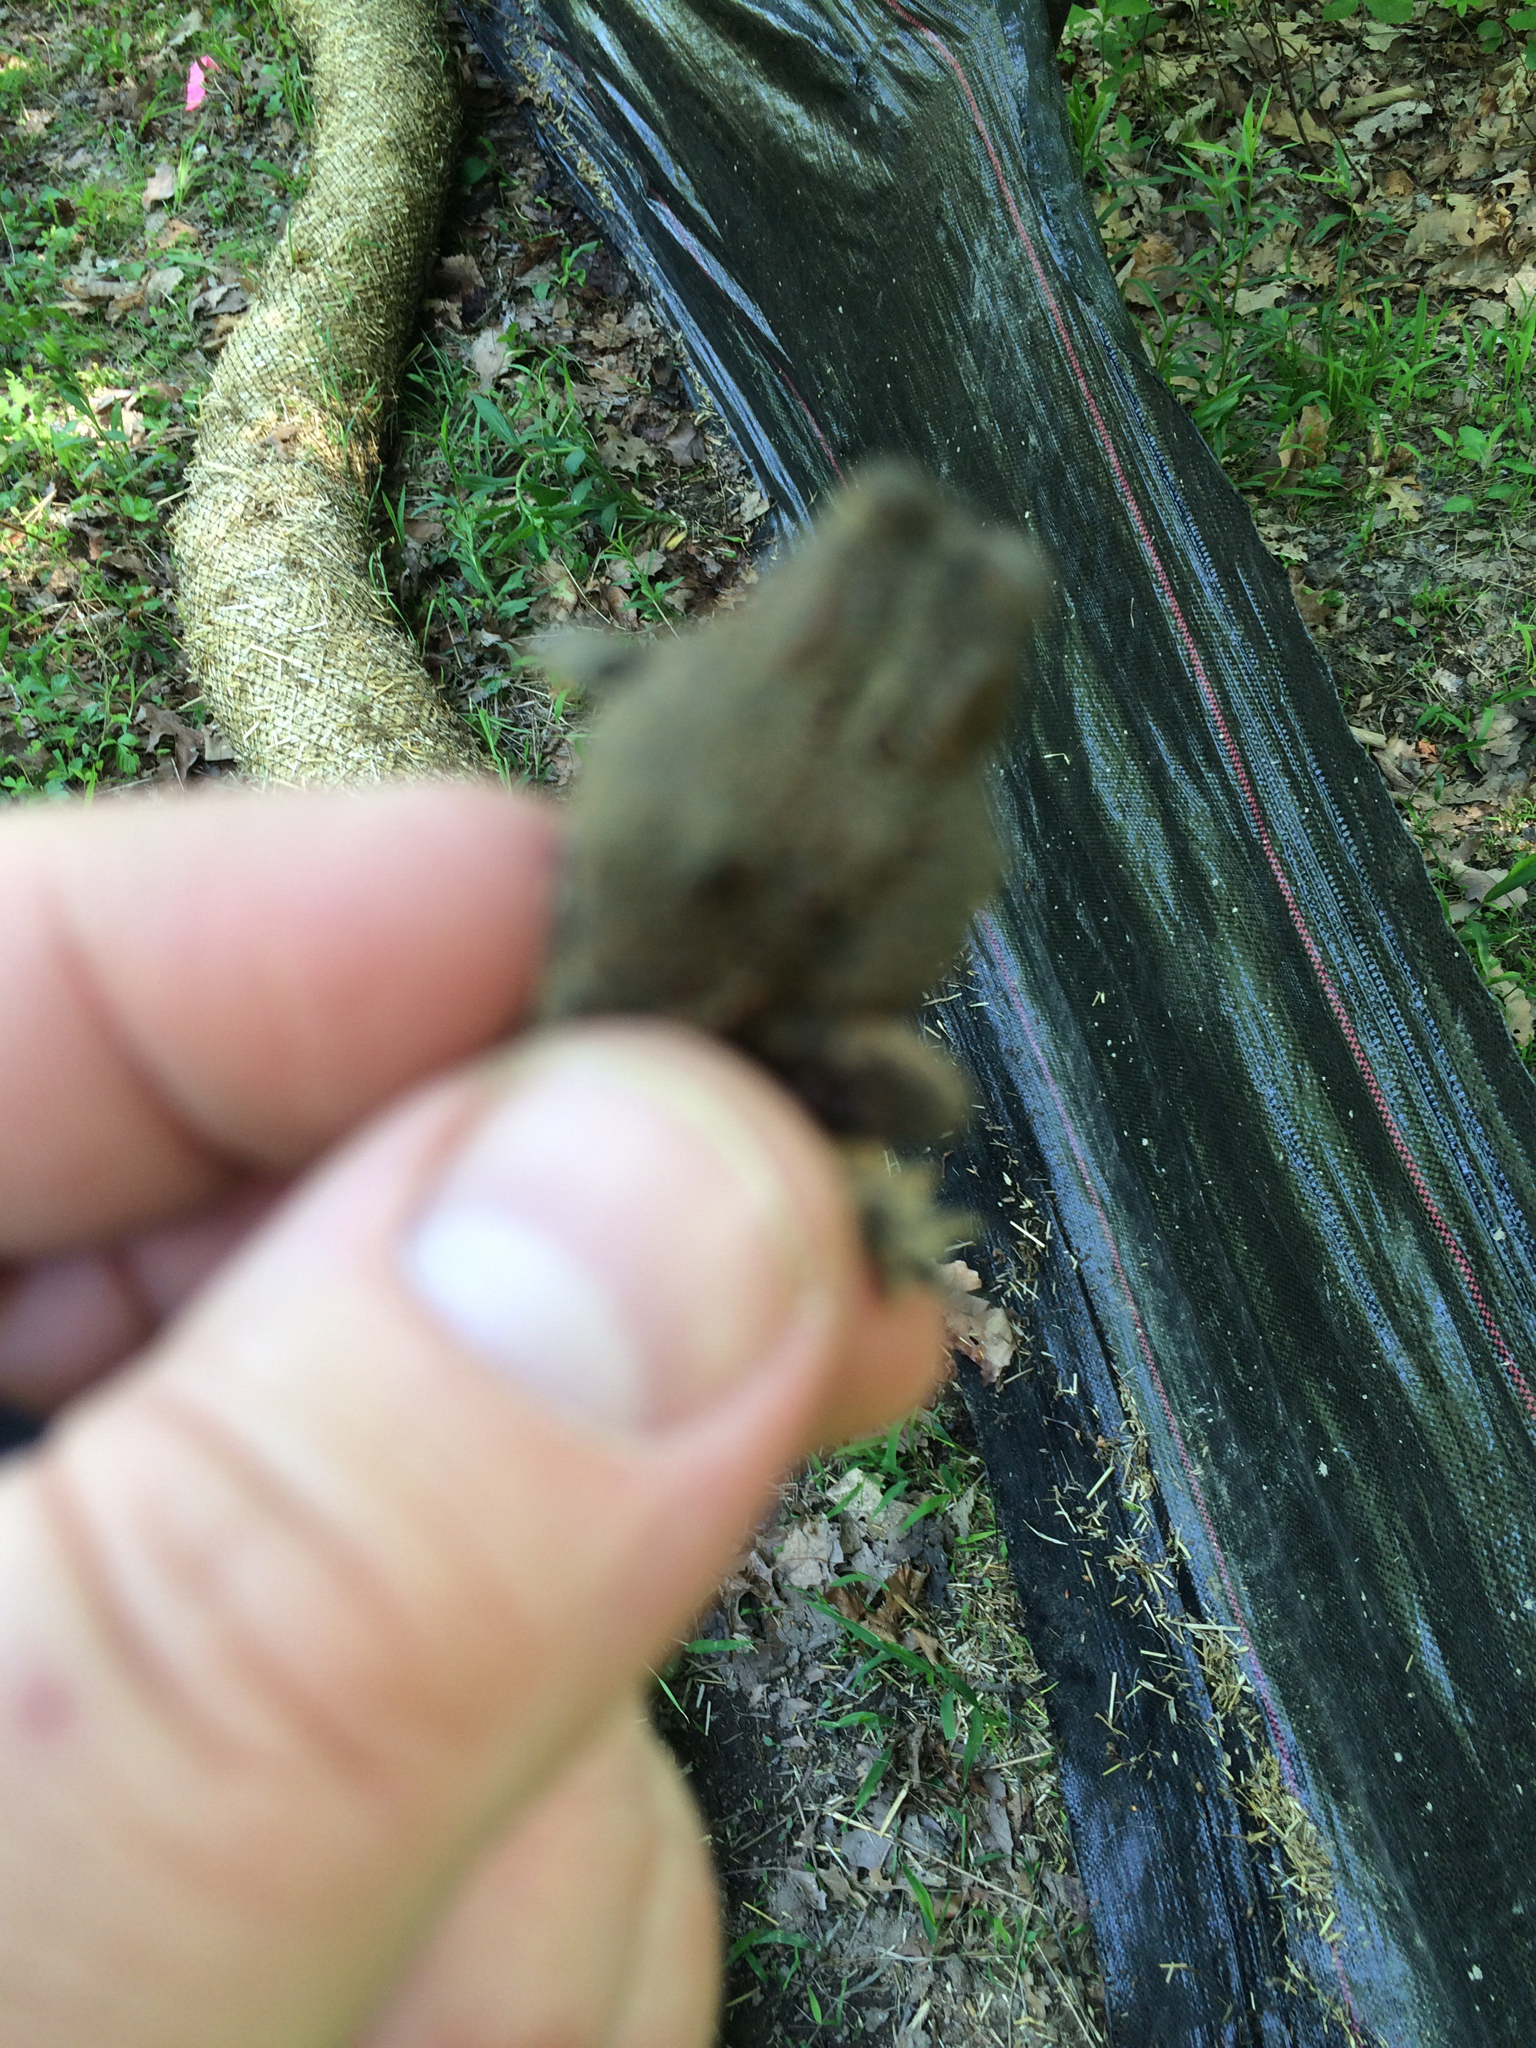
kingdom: Animalia
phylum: Chordata
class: Amphibia
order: Anura
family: Bufonidae
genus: Anaxyrus
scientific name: Anaxyrus americanus
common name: American toad
